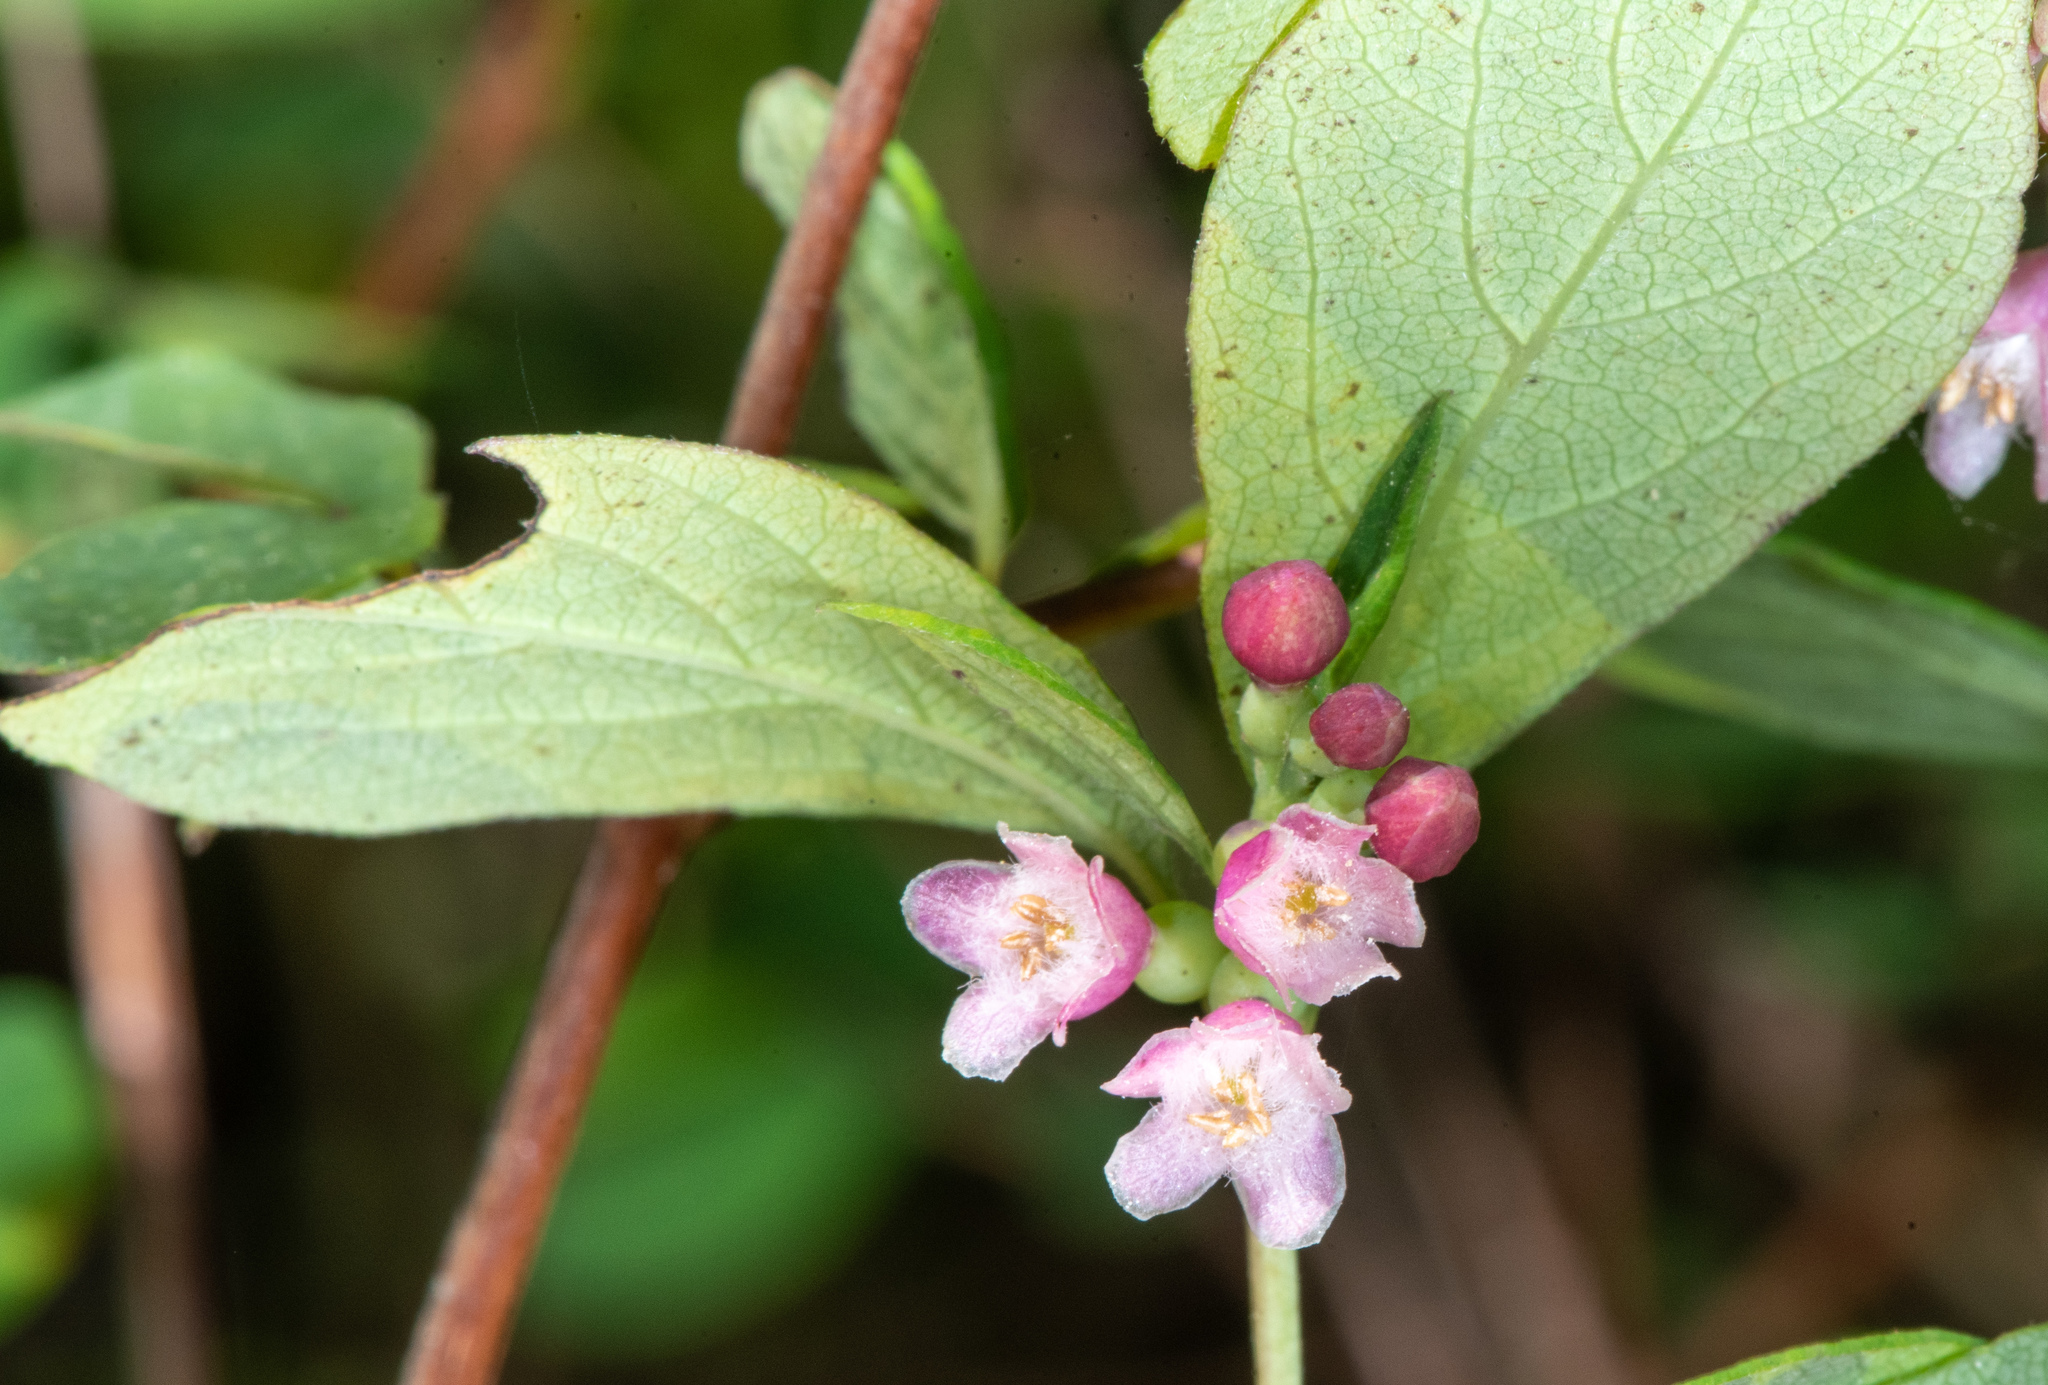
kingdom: Plantae
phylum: Tracheophyta
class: Magnoliopsida
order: Dipsacales
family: Caprifoliaceae
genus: Symphoricarpos
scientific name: Symphoricarpos albus
